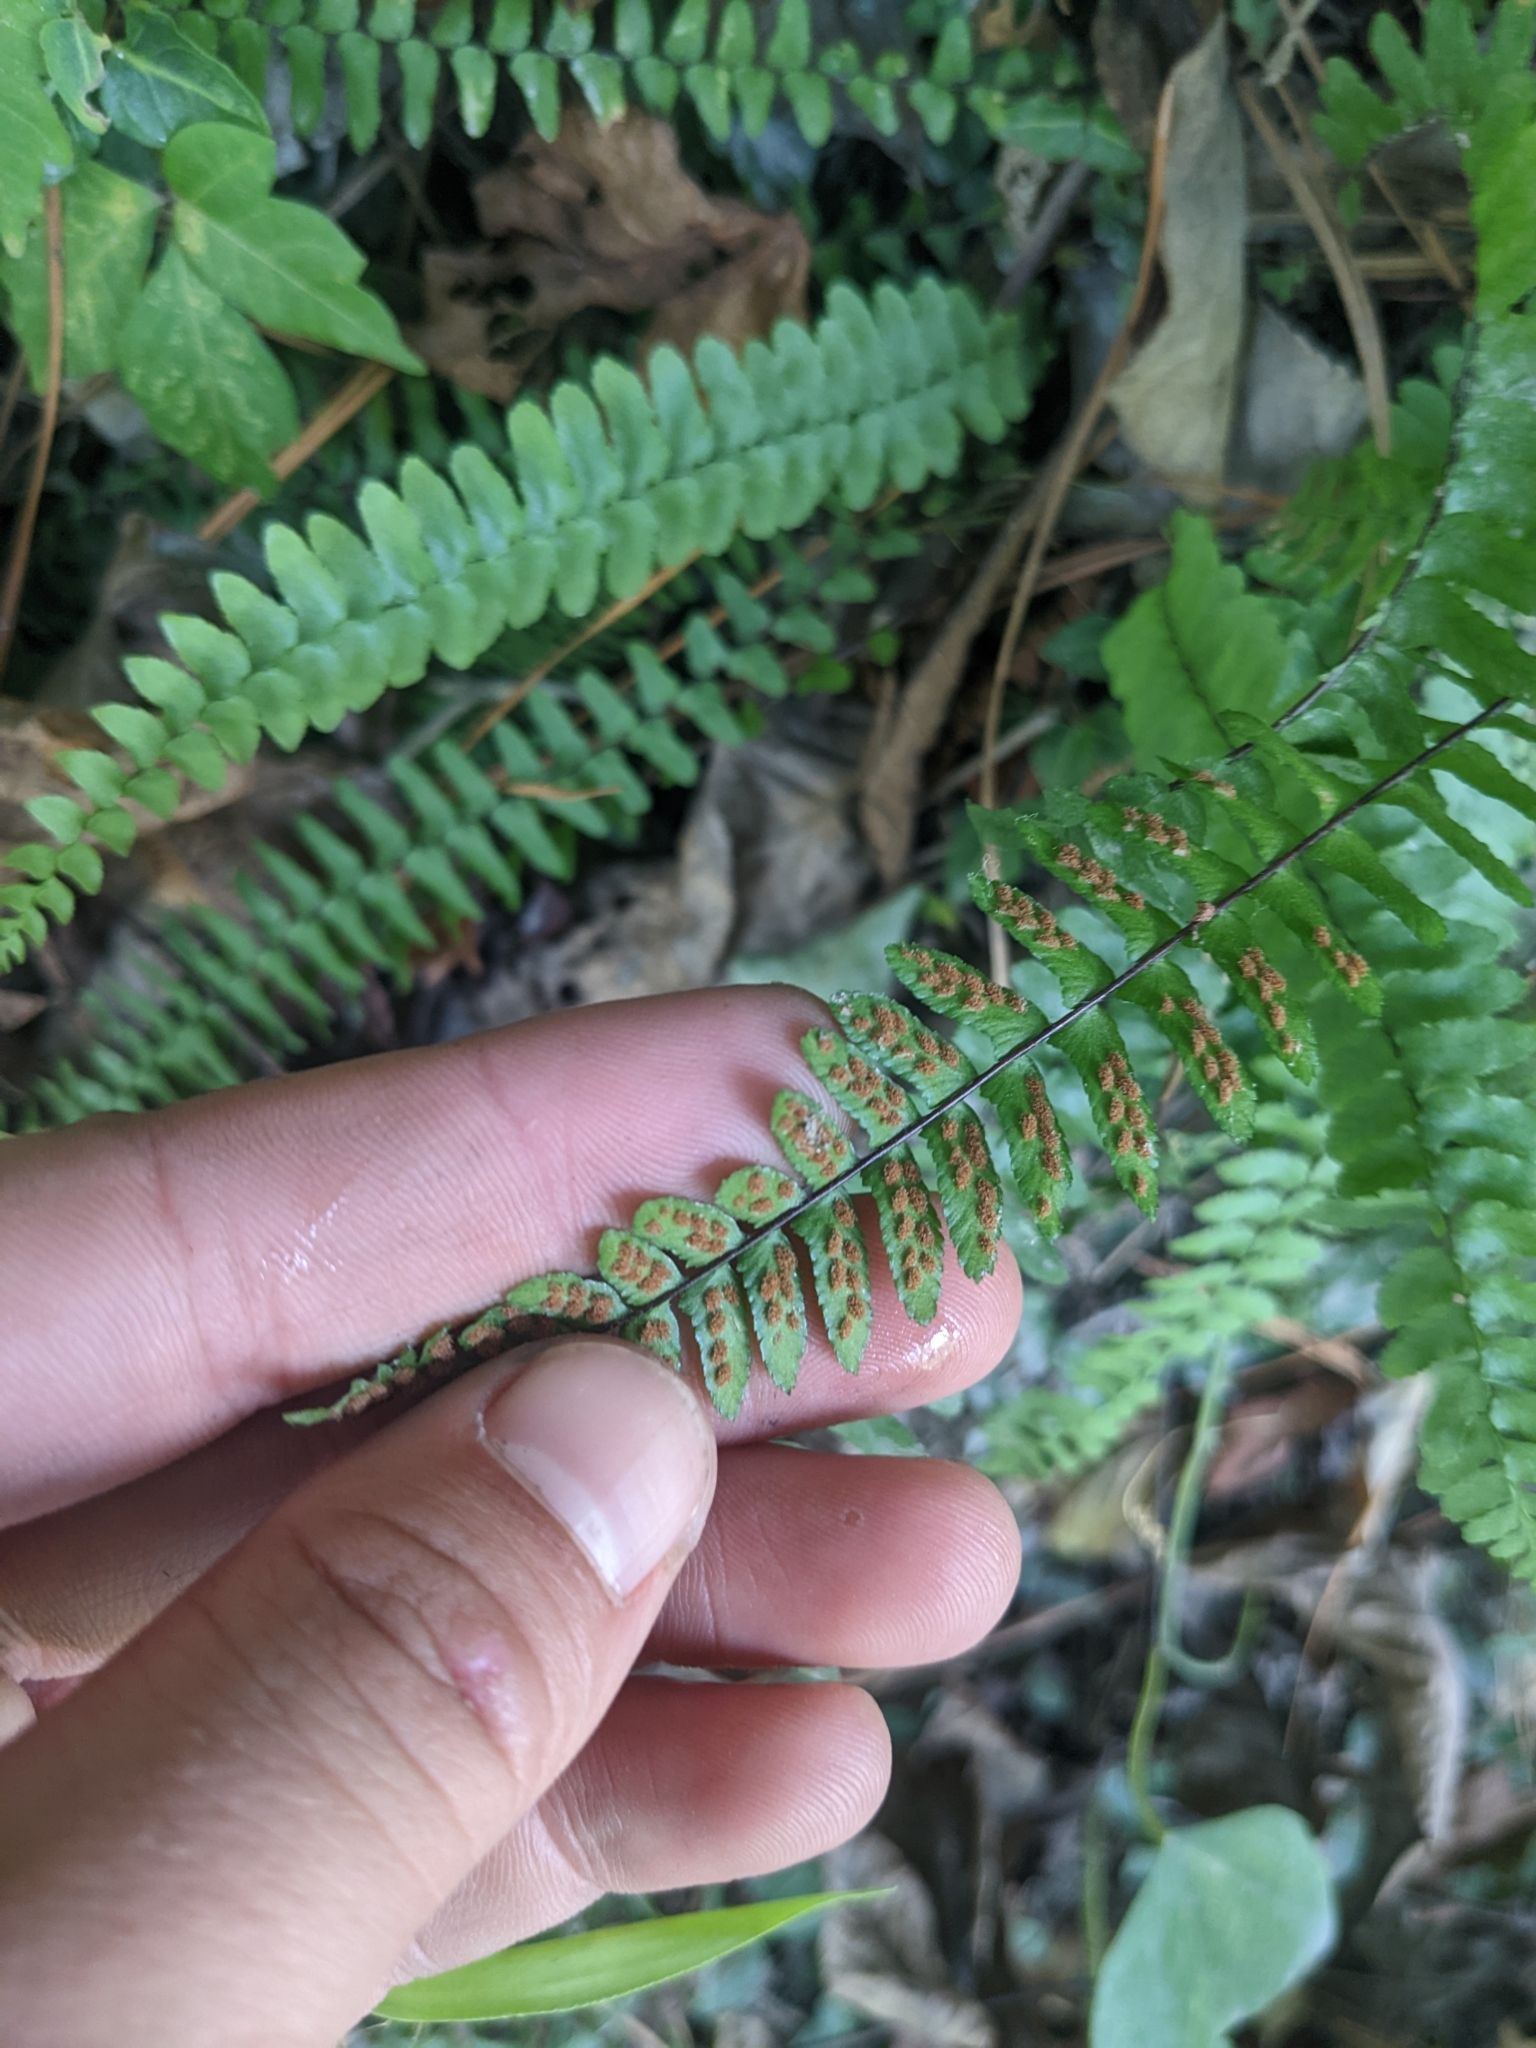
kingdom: Plantae
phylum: Tracheophyta
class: Polypodiopsida
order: Polypodiales
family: Aspleniaceae
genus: Asplenium
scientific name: Asplenium platyneuron
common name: Ebony spleenwort
